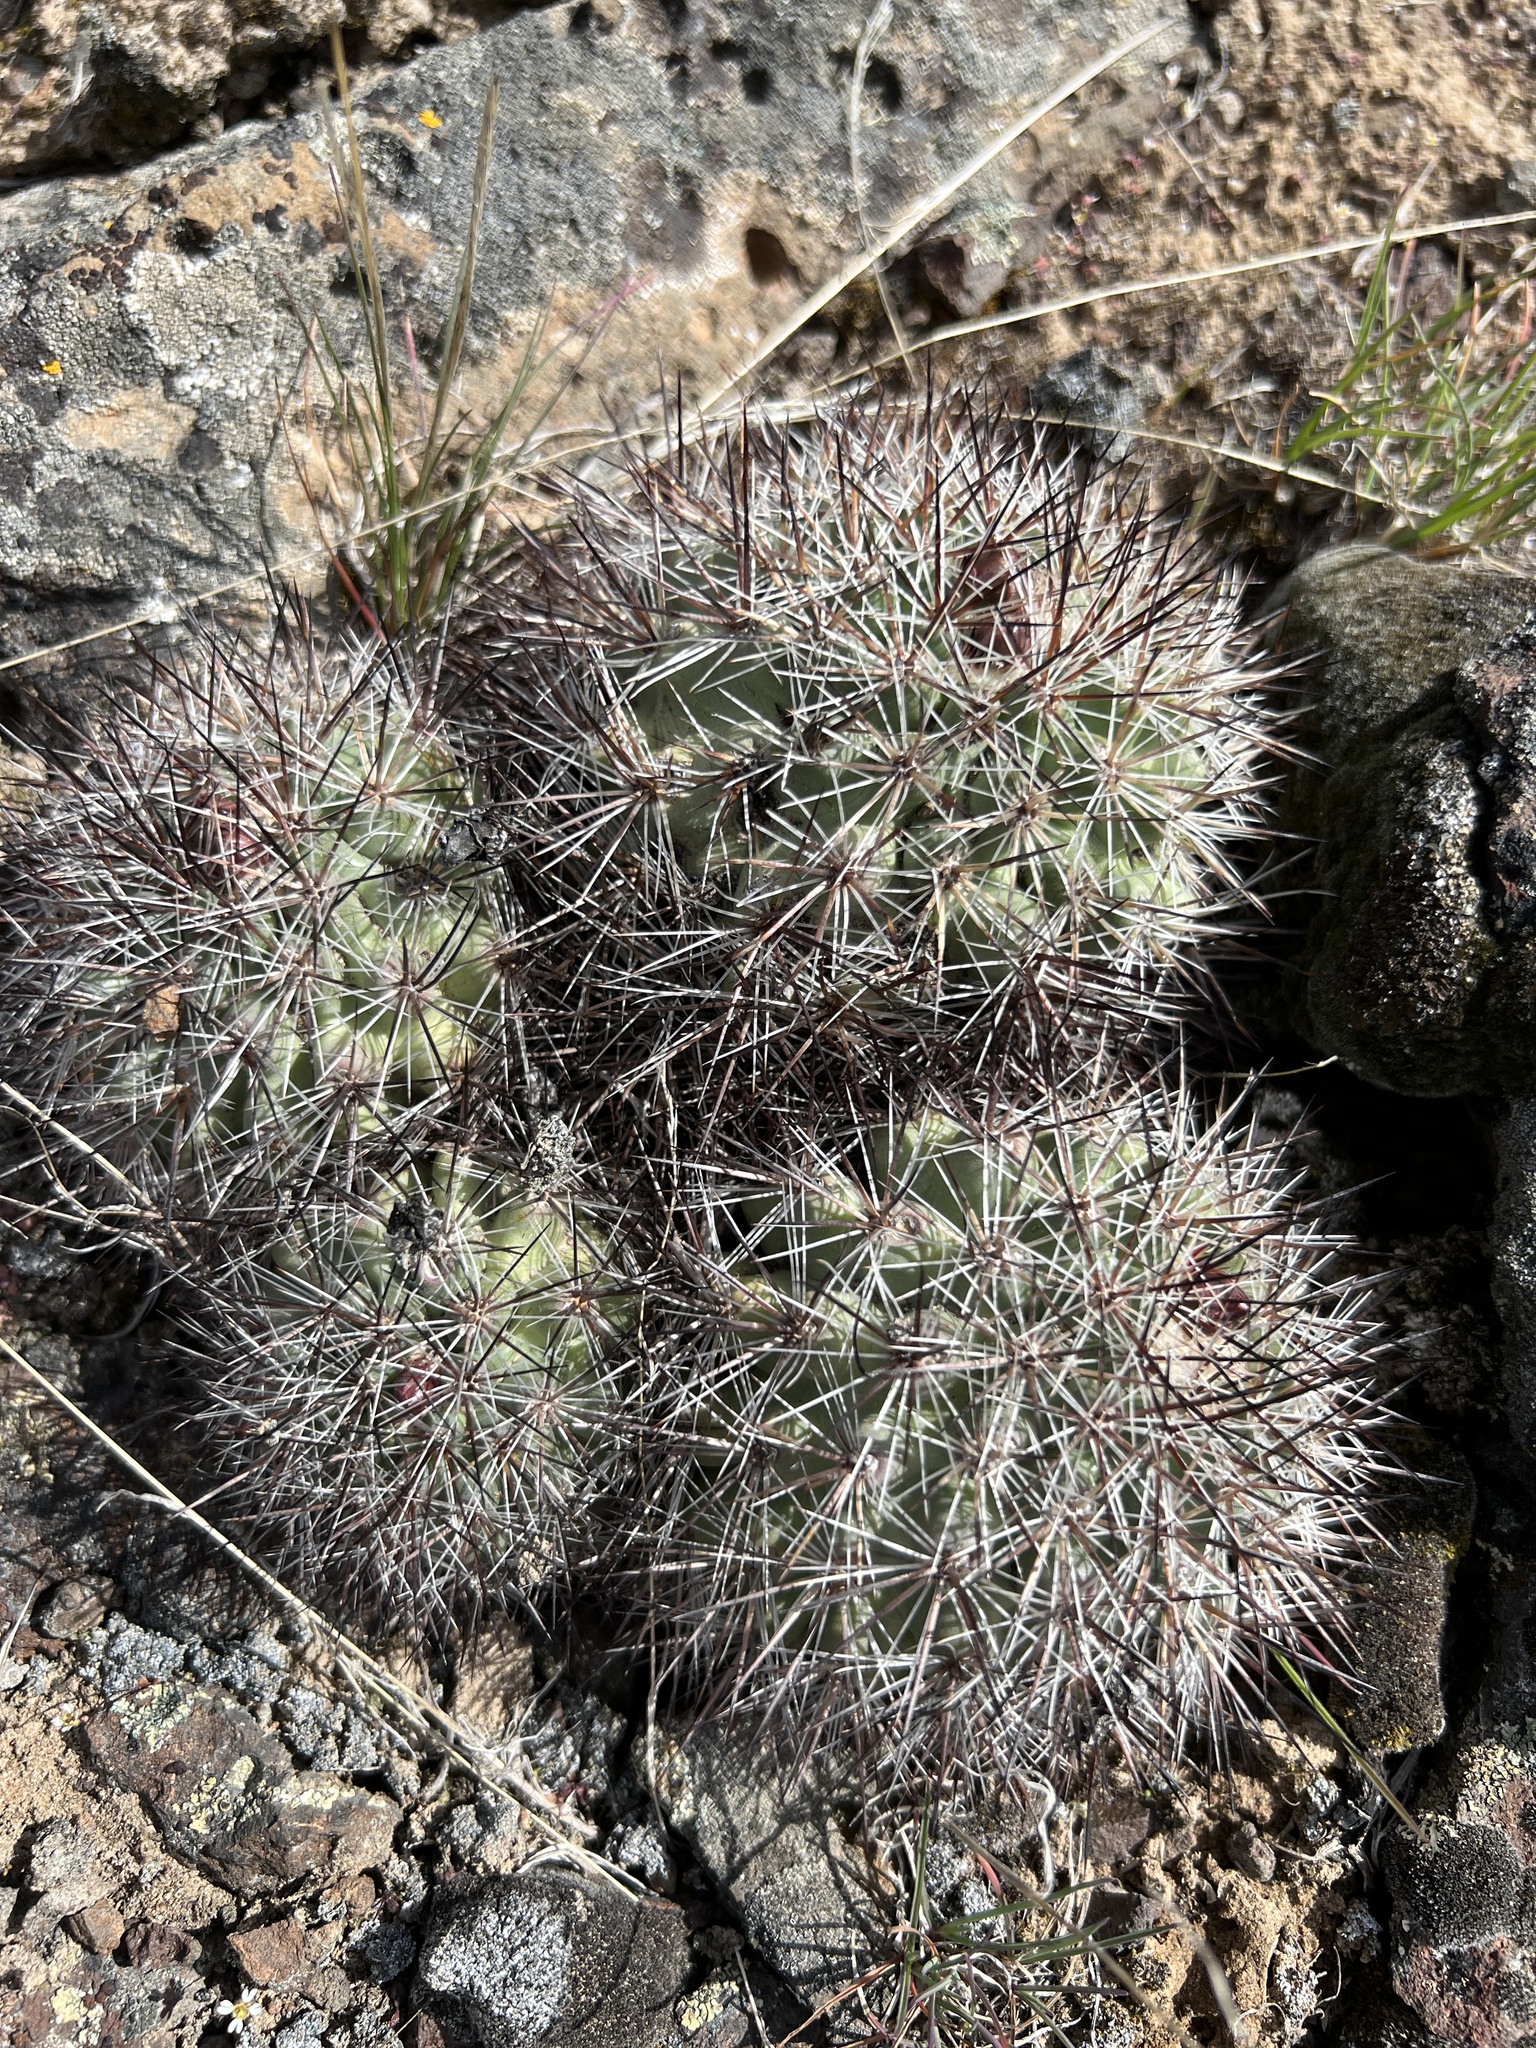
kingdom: Plantae
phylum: Tracheophyta
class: Magnoliopsida
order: Caryophyllales
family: Cactaceae
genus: Pediocactus
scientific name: Pediocactus nigrispinus
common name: Simpson's hedgehog cactus
